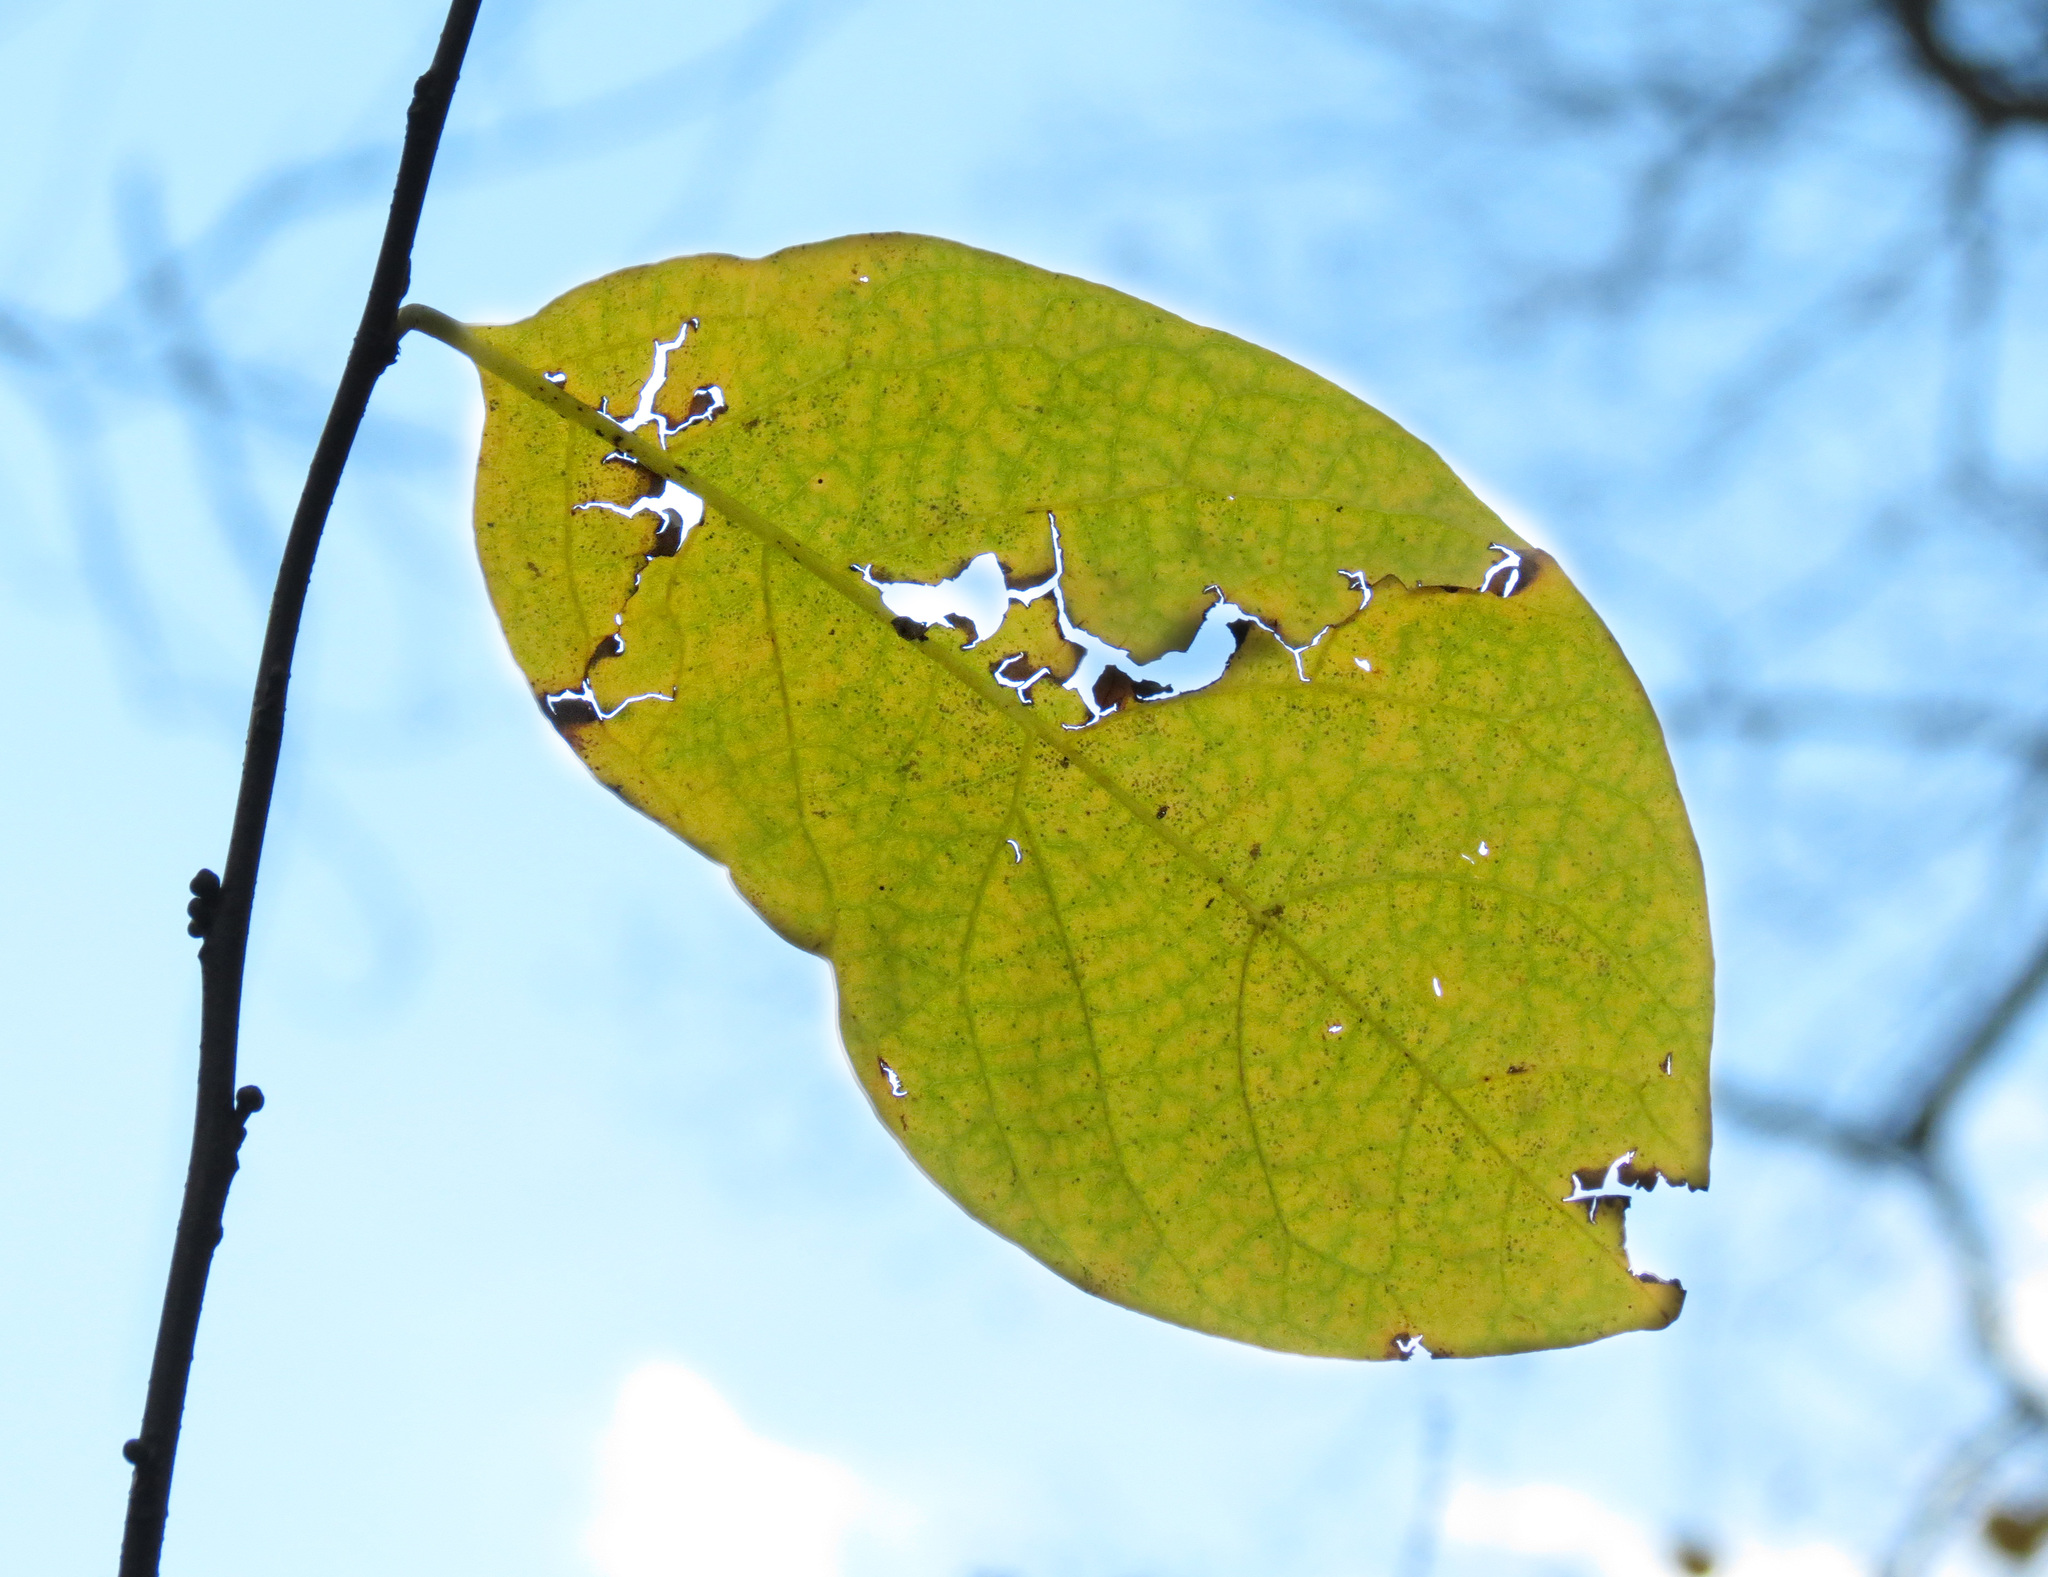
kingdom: Plantae
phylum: Tracheophyta
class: Magnoliopsida
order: Laurales
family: Lauraceae
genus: Lindera
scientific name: Lindera benzoin
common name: Spicebush
